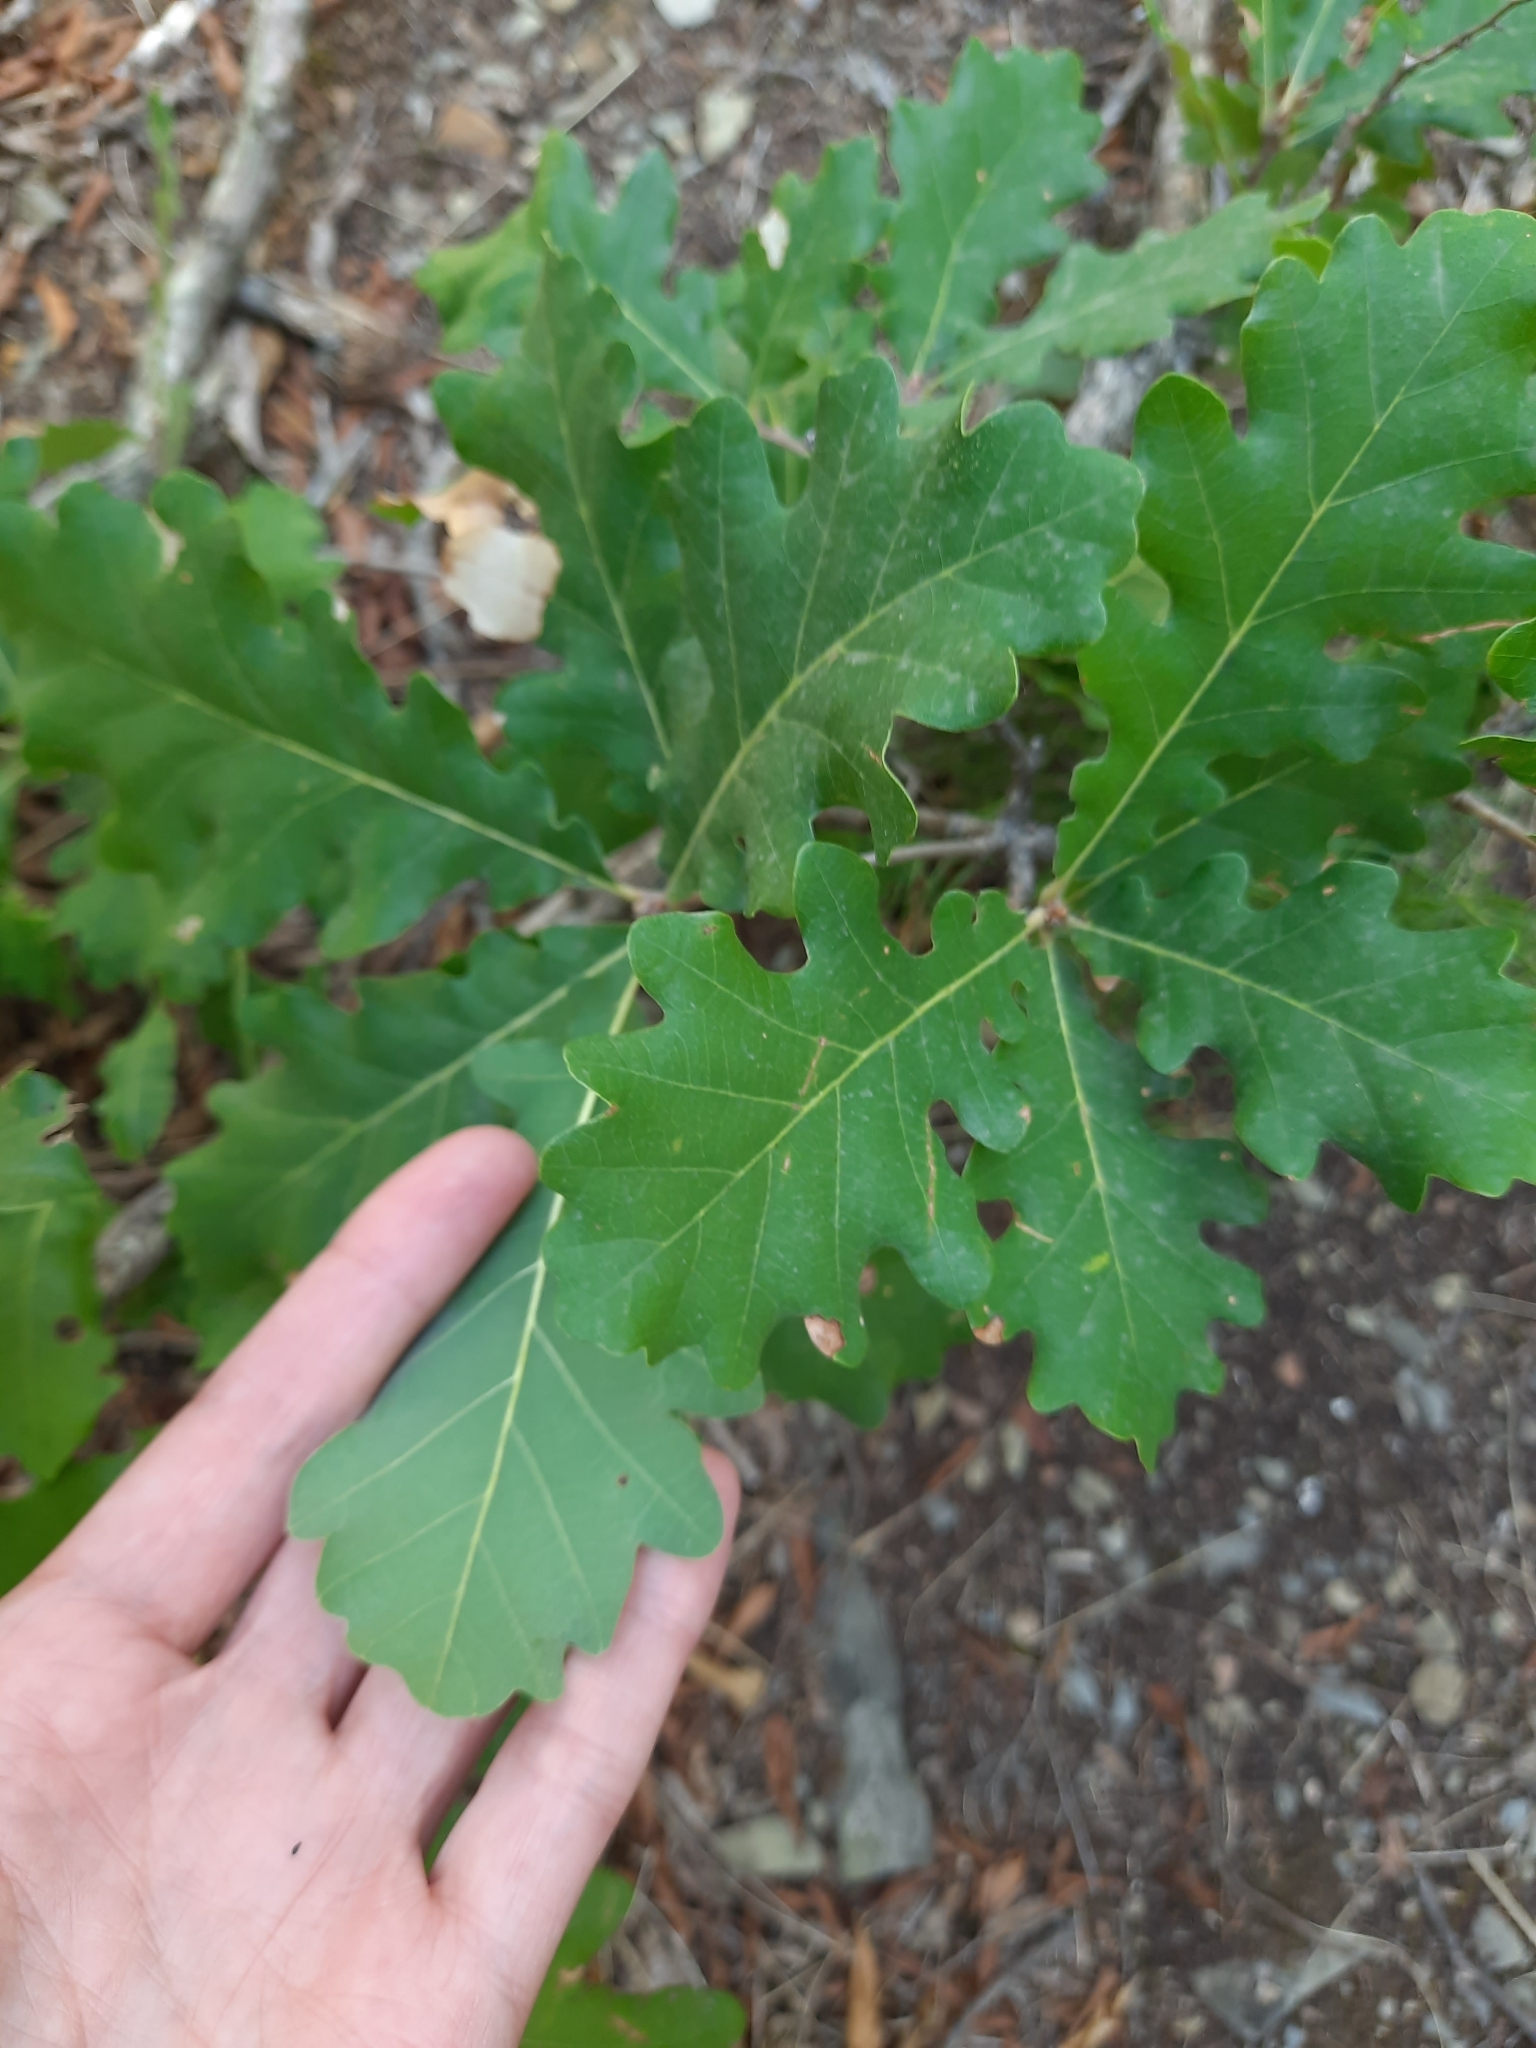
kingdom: Plantae
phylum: Tracheophyta
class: Magnoliopsida
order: Fagales
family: Fagaceae
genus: Quercus
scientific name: Quercus pubescens
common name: Downy oak
